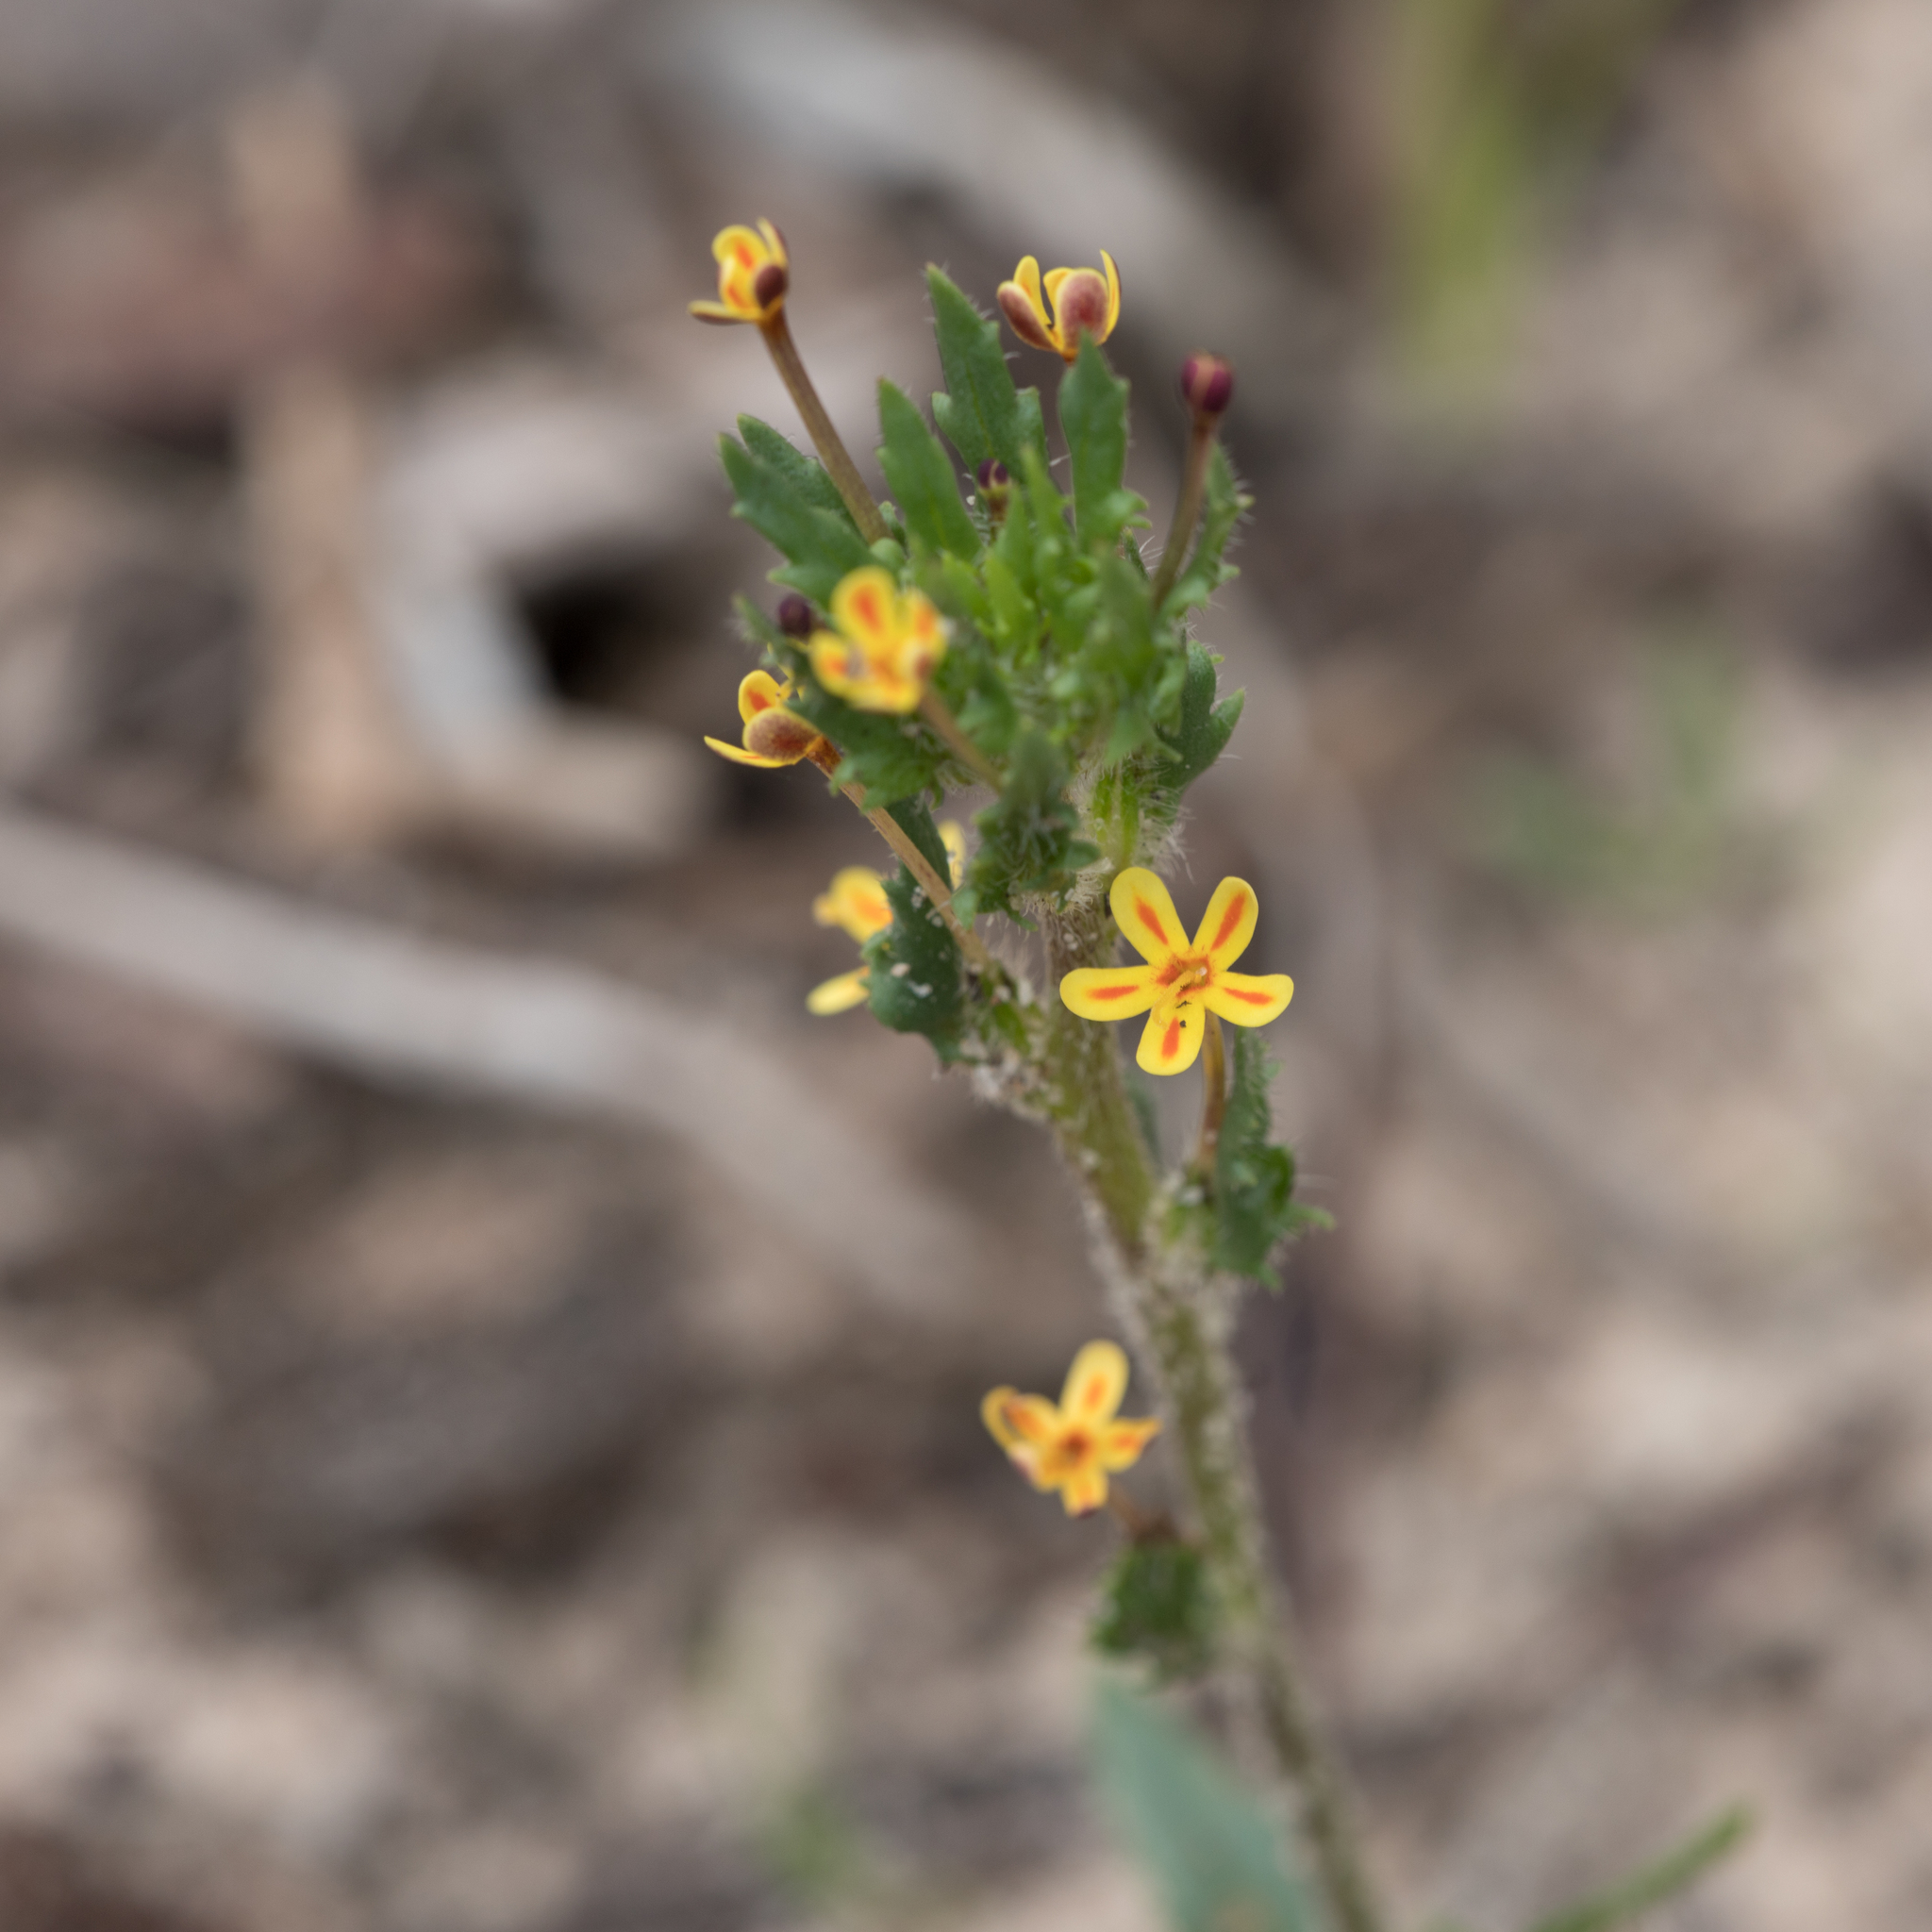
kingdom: Plantae
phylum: Tracheophyta
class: Magnoliopsida
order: Lamiales
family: Scrophulariaceae
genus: Zaluzianskya
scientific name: Zaluzianskya divaricata
